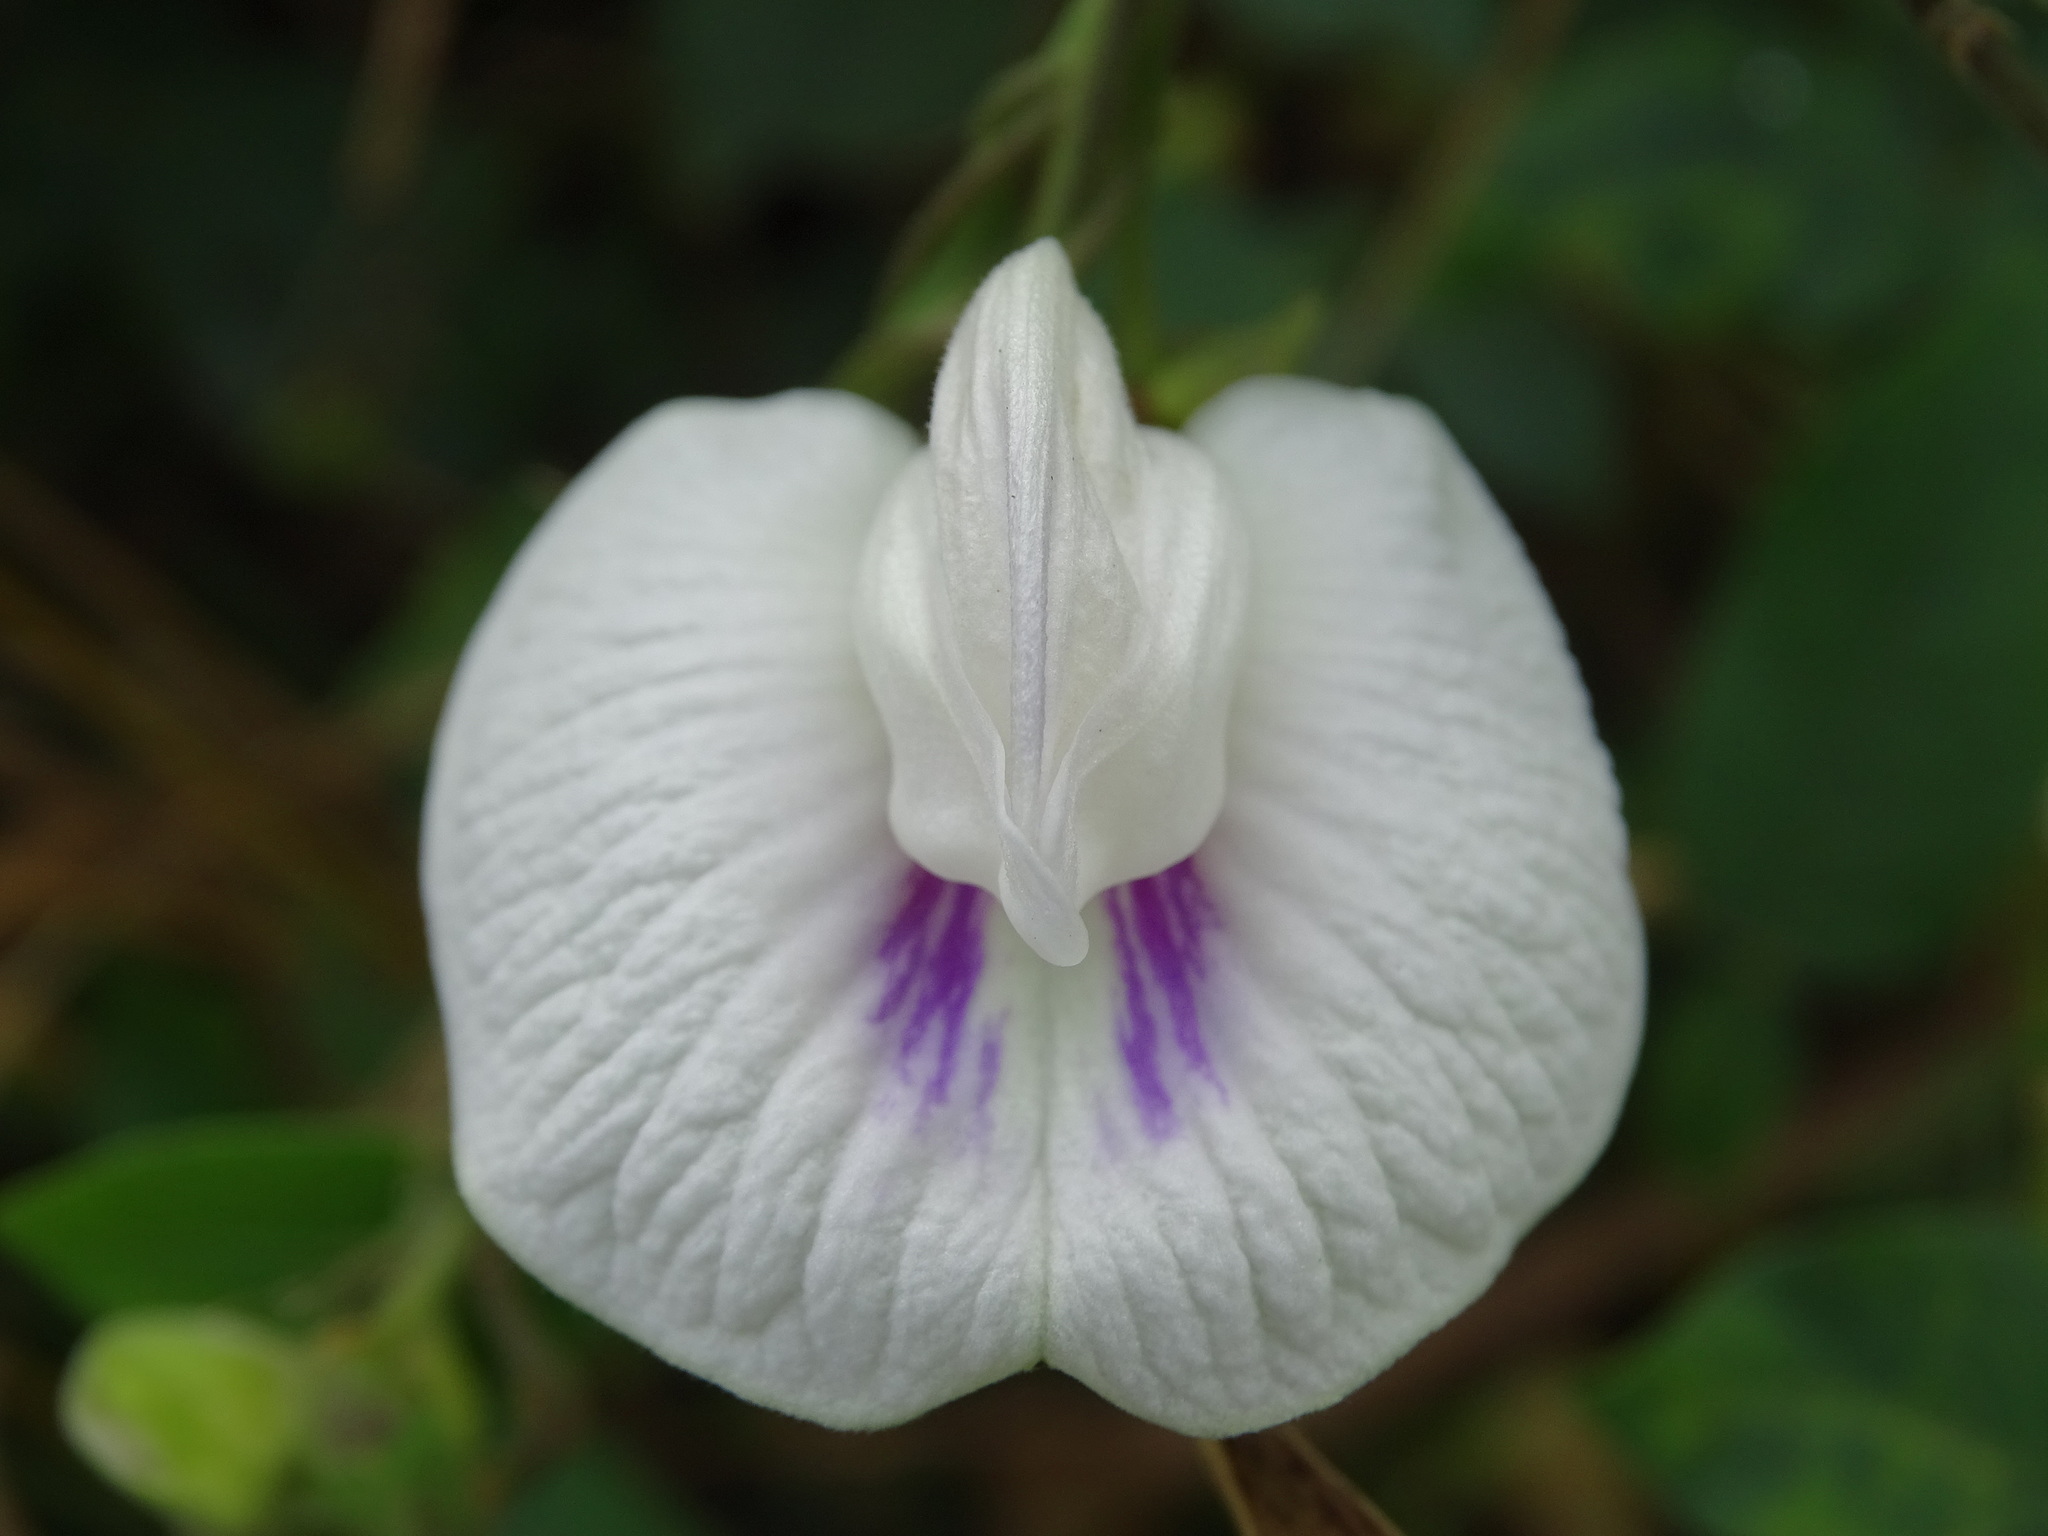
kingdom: Plantae
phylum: Tracheophyta
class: Magnoliopsida
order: Fabales
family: Fabaceae
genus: Centrosema
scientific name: Centrosema pubescens
